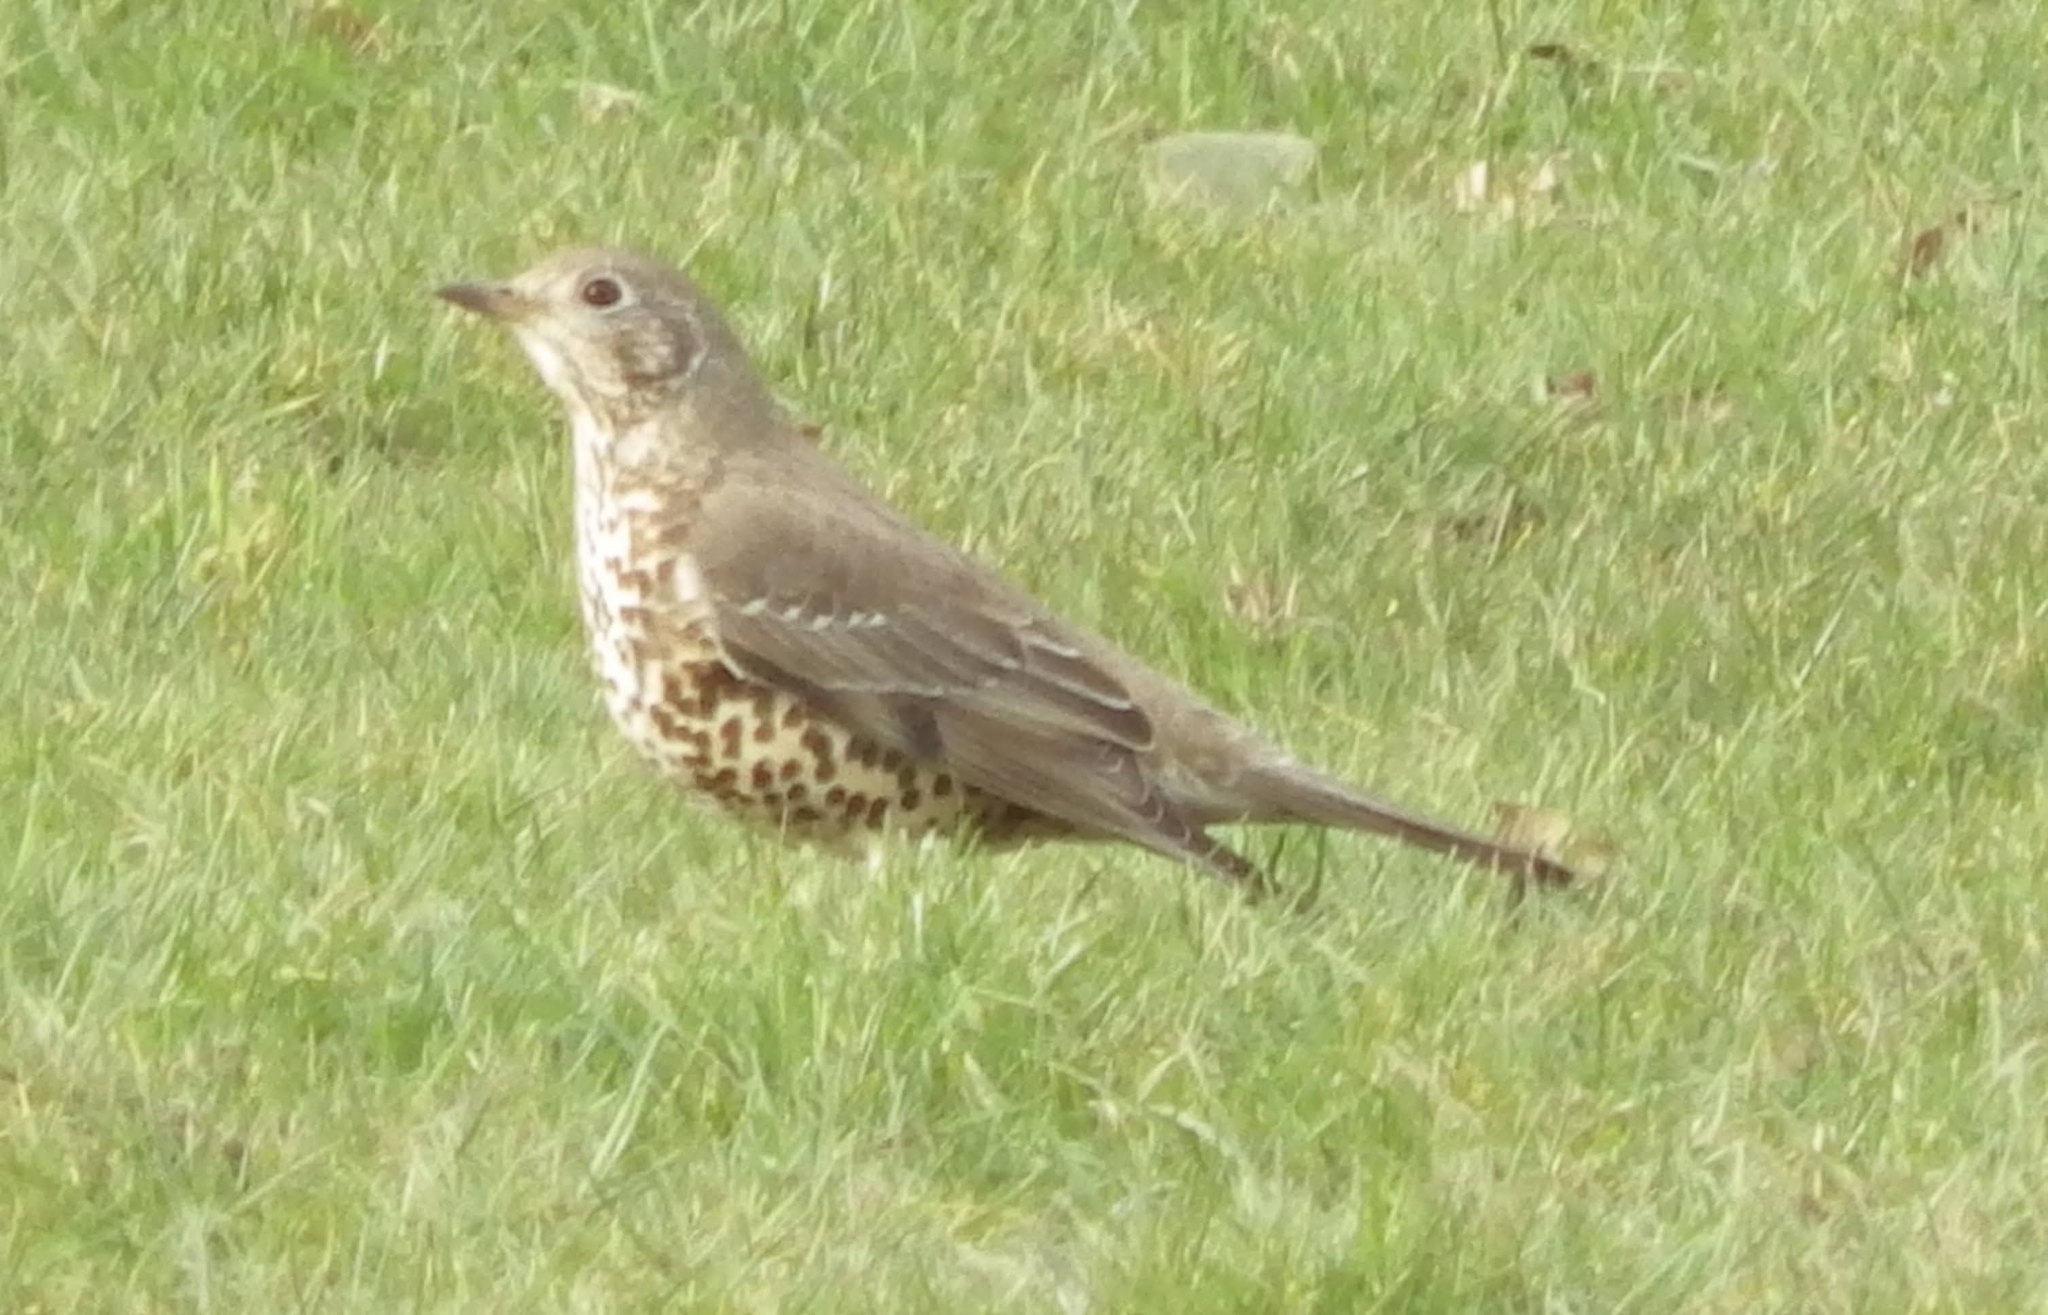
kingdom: Animalia
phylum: Chordata
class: Aves
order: Passeriformes
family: Turdidae
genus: Turdus
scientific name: Turdus viscivorus
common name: Mistle thrush
